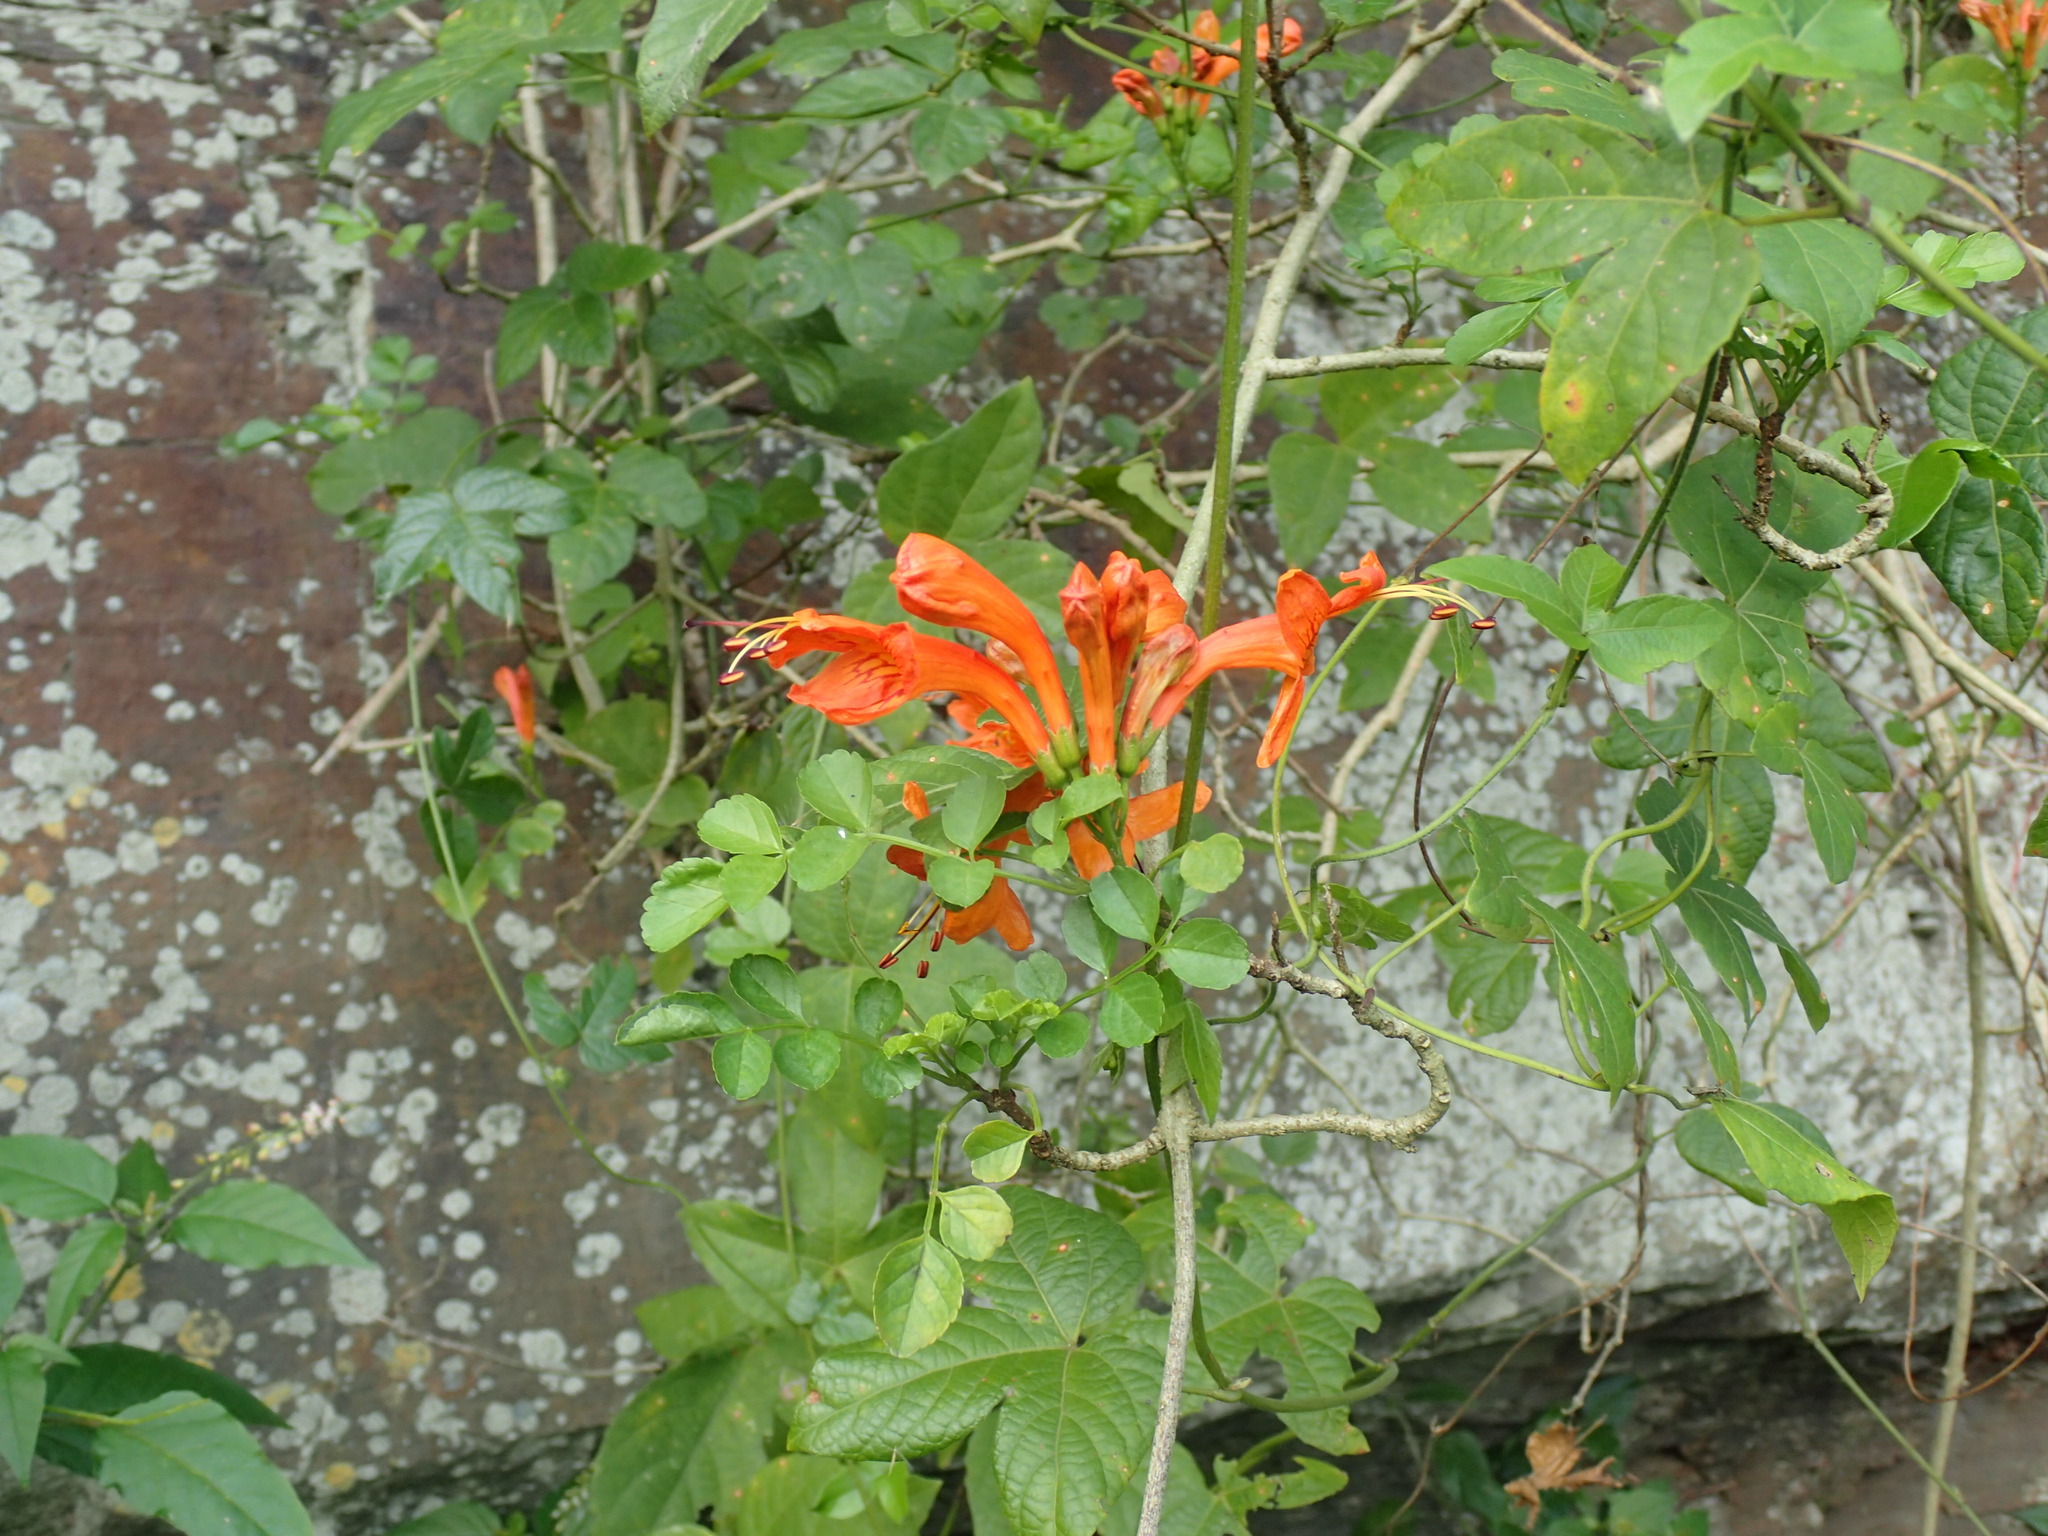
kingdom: Plantae
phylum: Tracheophyta
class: Magnoliopsida
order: Lamiales
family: Bignoniaceae
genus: Tecomaria
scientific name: Tecomaria capensis
